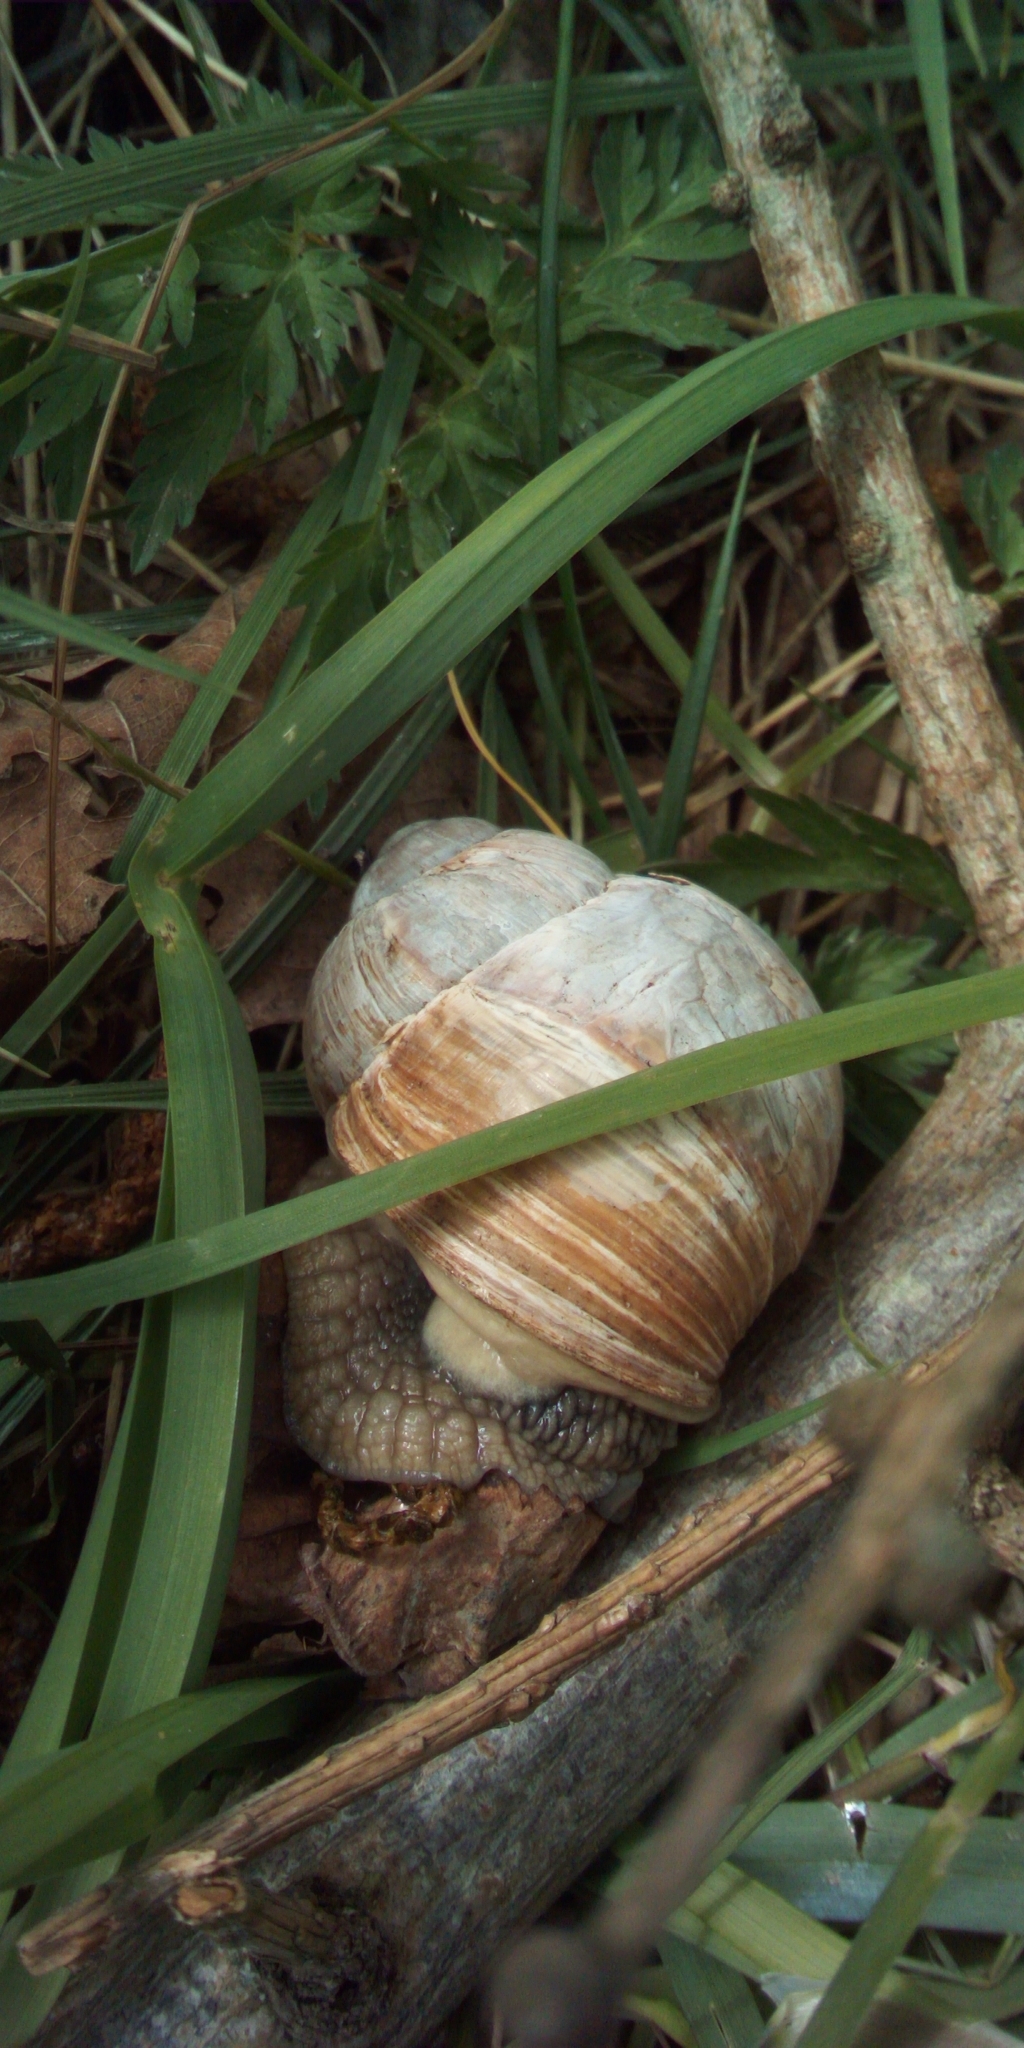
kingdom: Animalia
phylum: Mollusca
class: Gastropoda
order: Stylommatophora
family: Helicidae
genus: Helix
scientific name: Helix pomatia
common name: Roman snail
